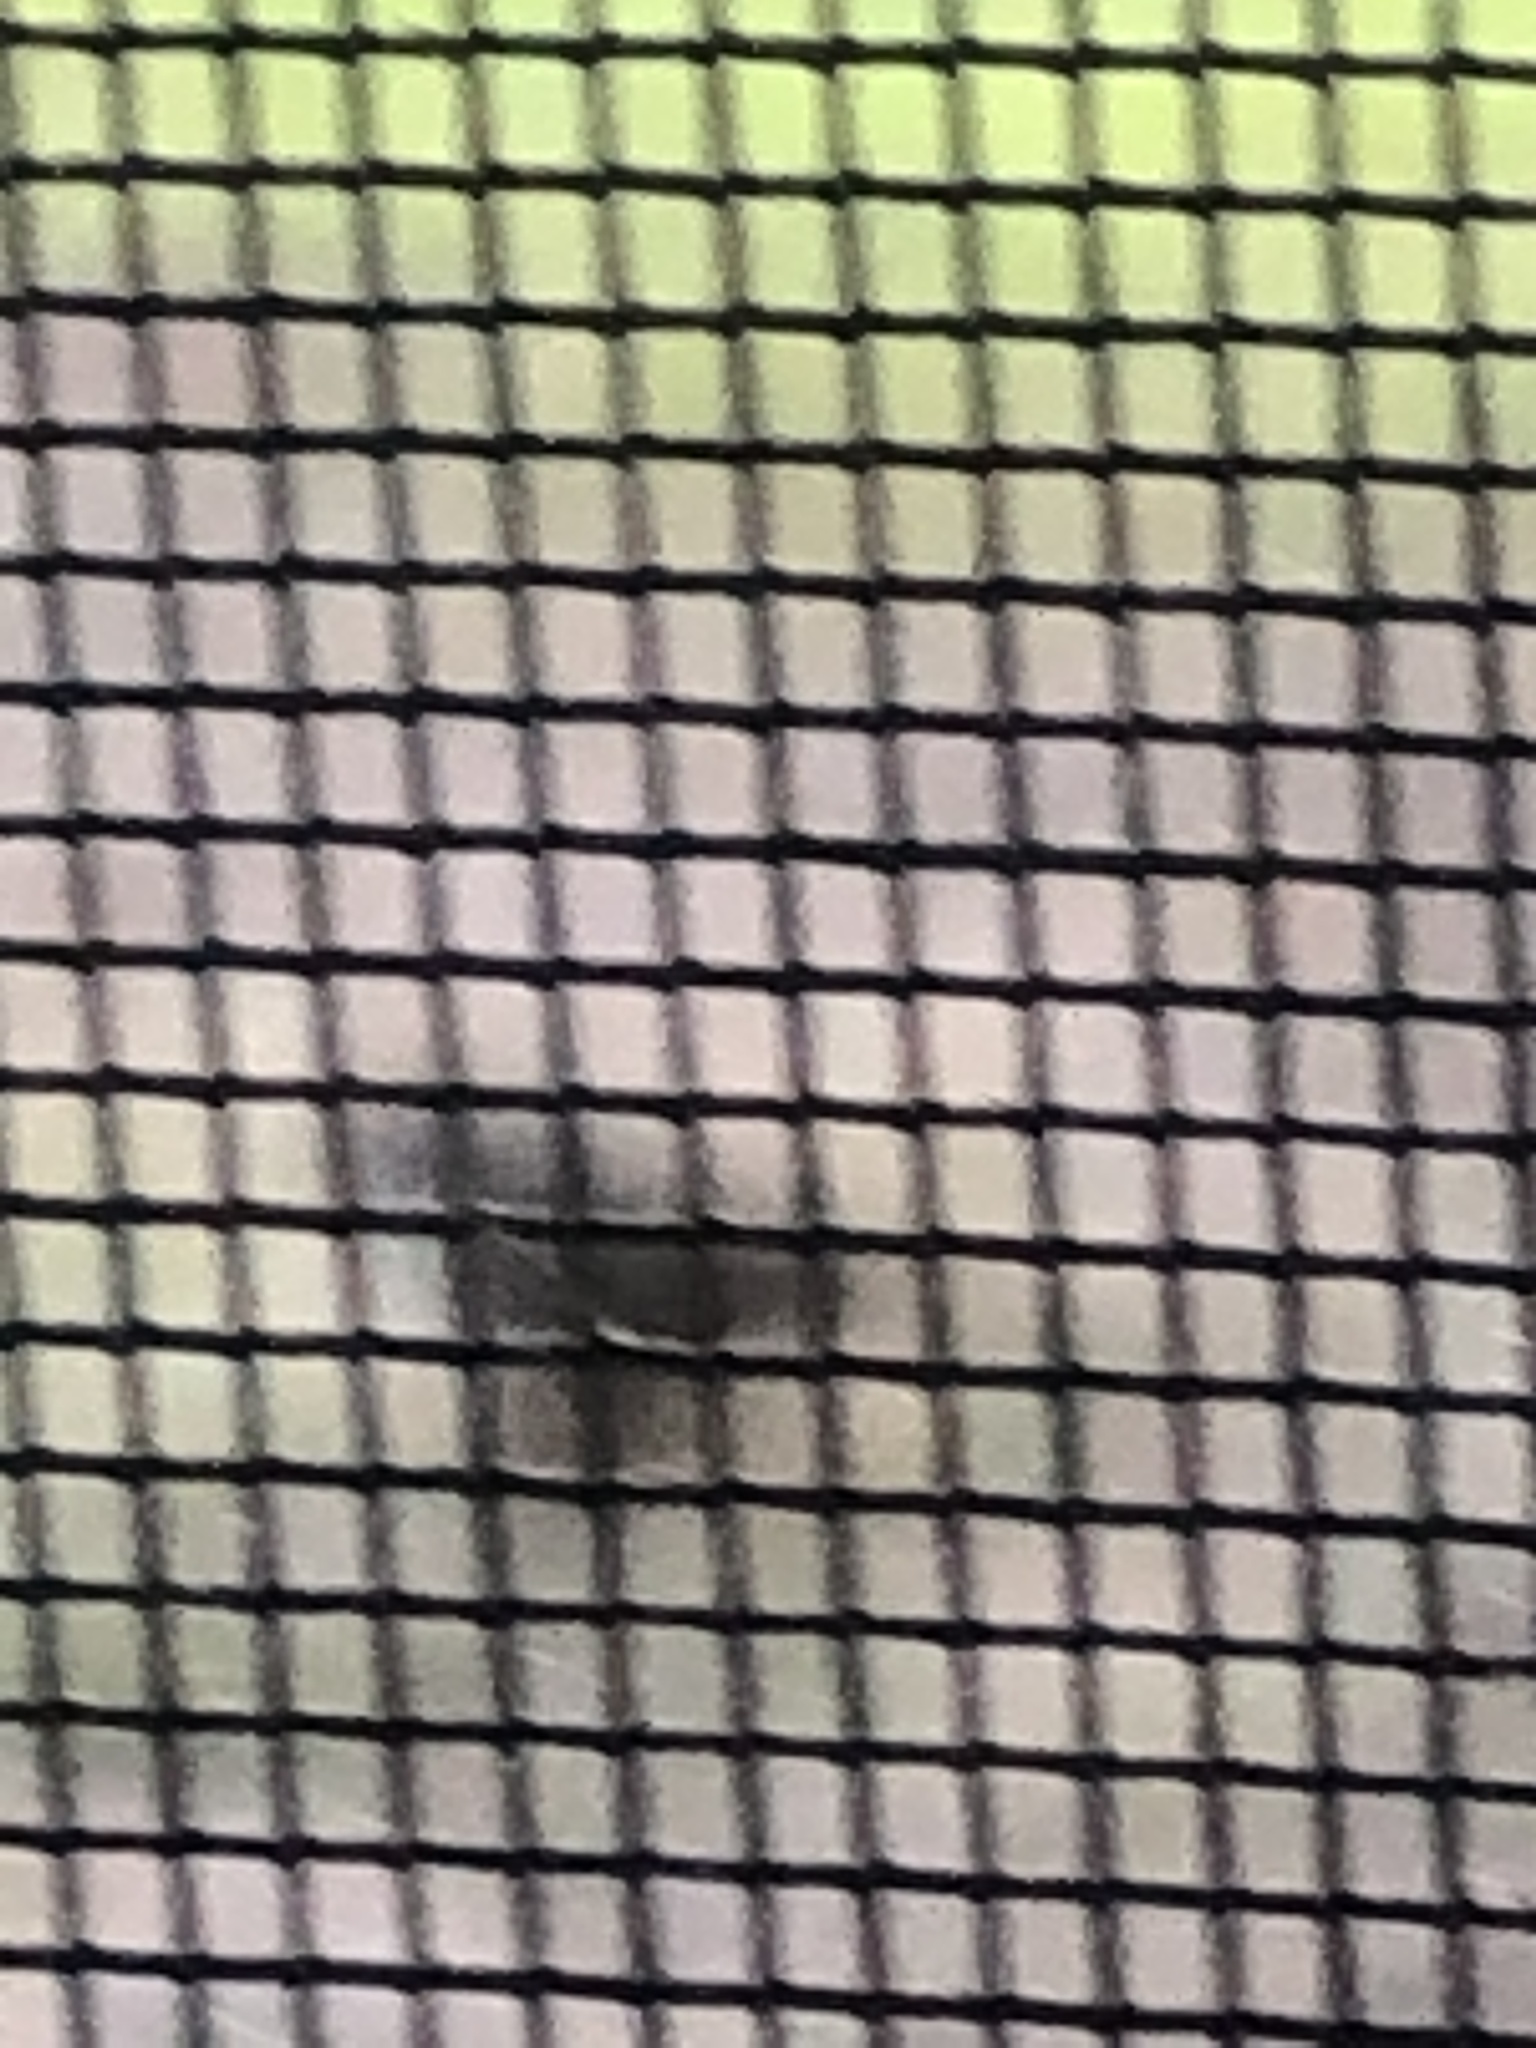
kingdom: Animalia
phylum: Chordata
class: Aves
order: Passeriformes
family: Passerellidae
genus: Passerella
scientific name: Passerella iliaca
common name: Fox sparrow
